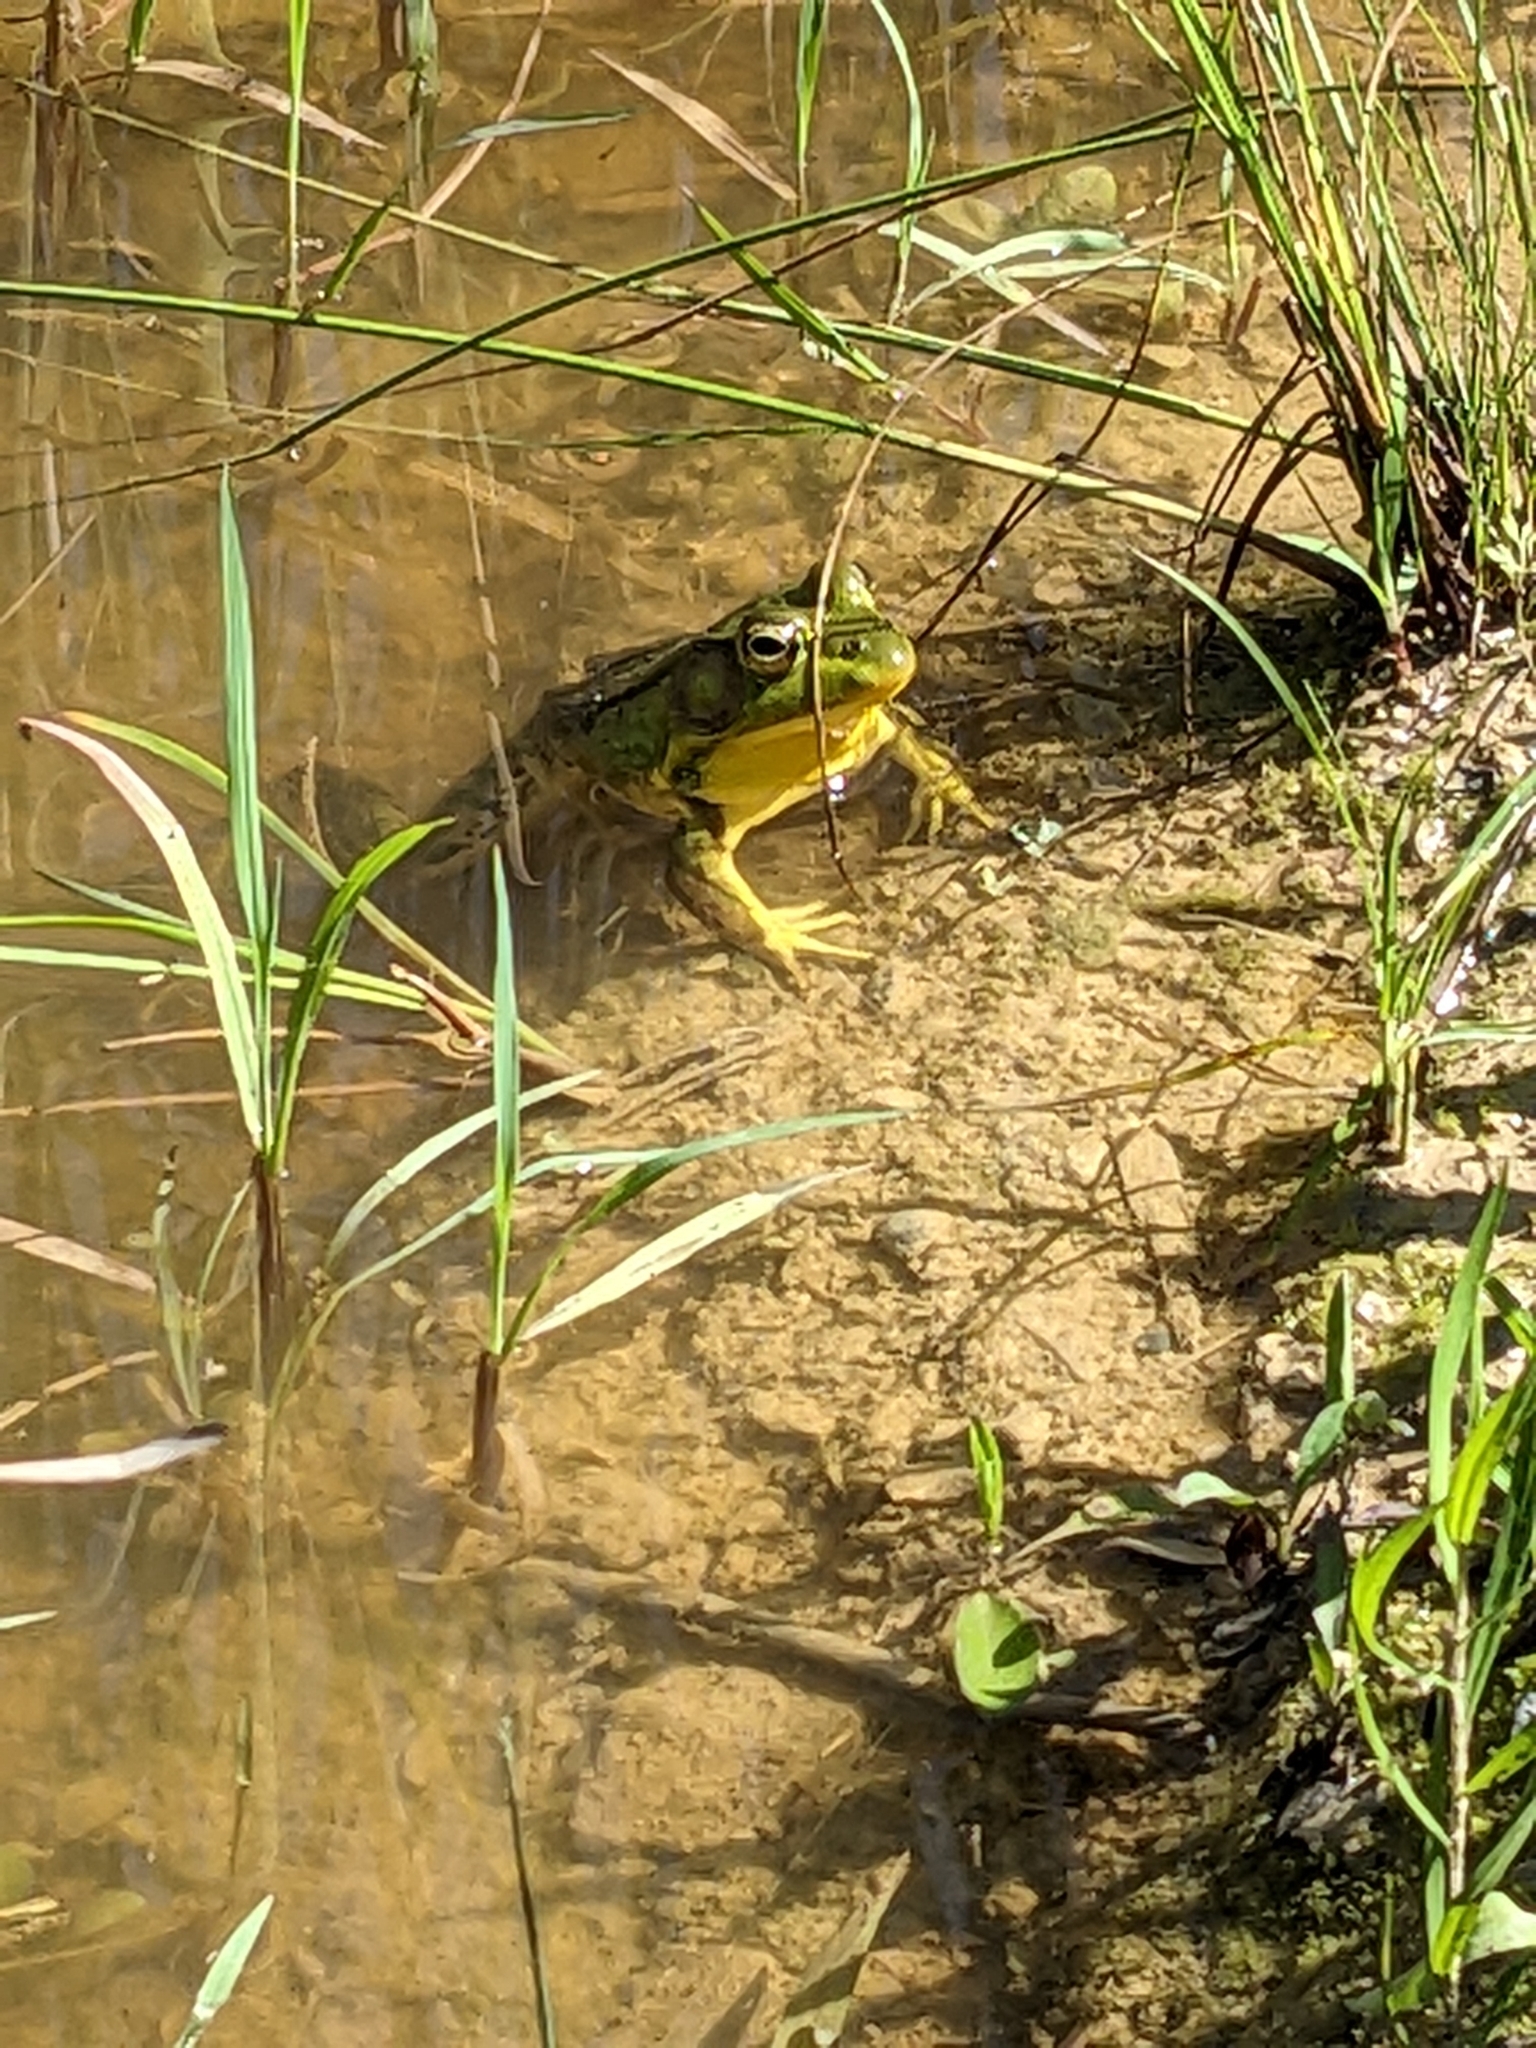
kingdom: Animalia
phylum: Chordata
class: Amphibia
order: Anura
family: Ranidae
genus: Lithobates
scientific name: Lithobates clamitans
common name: Green frog
